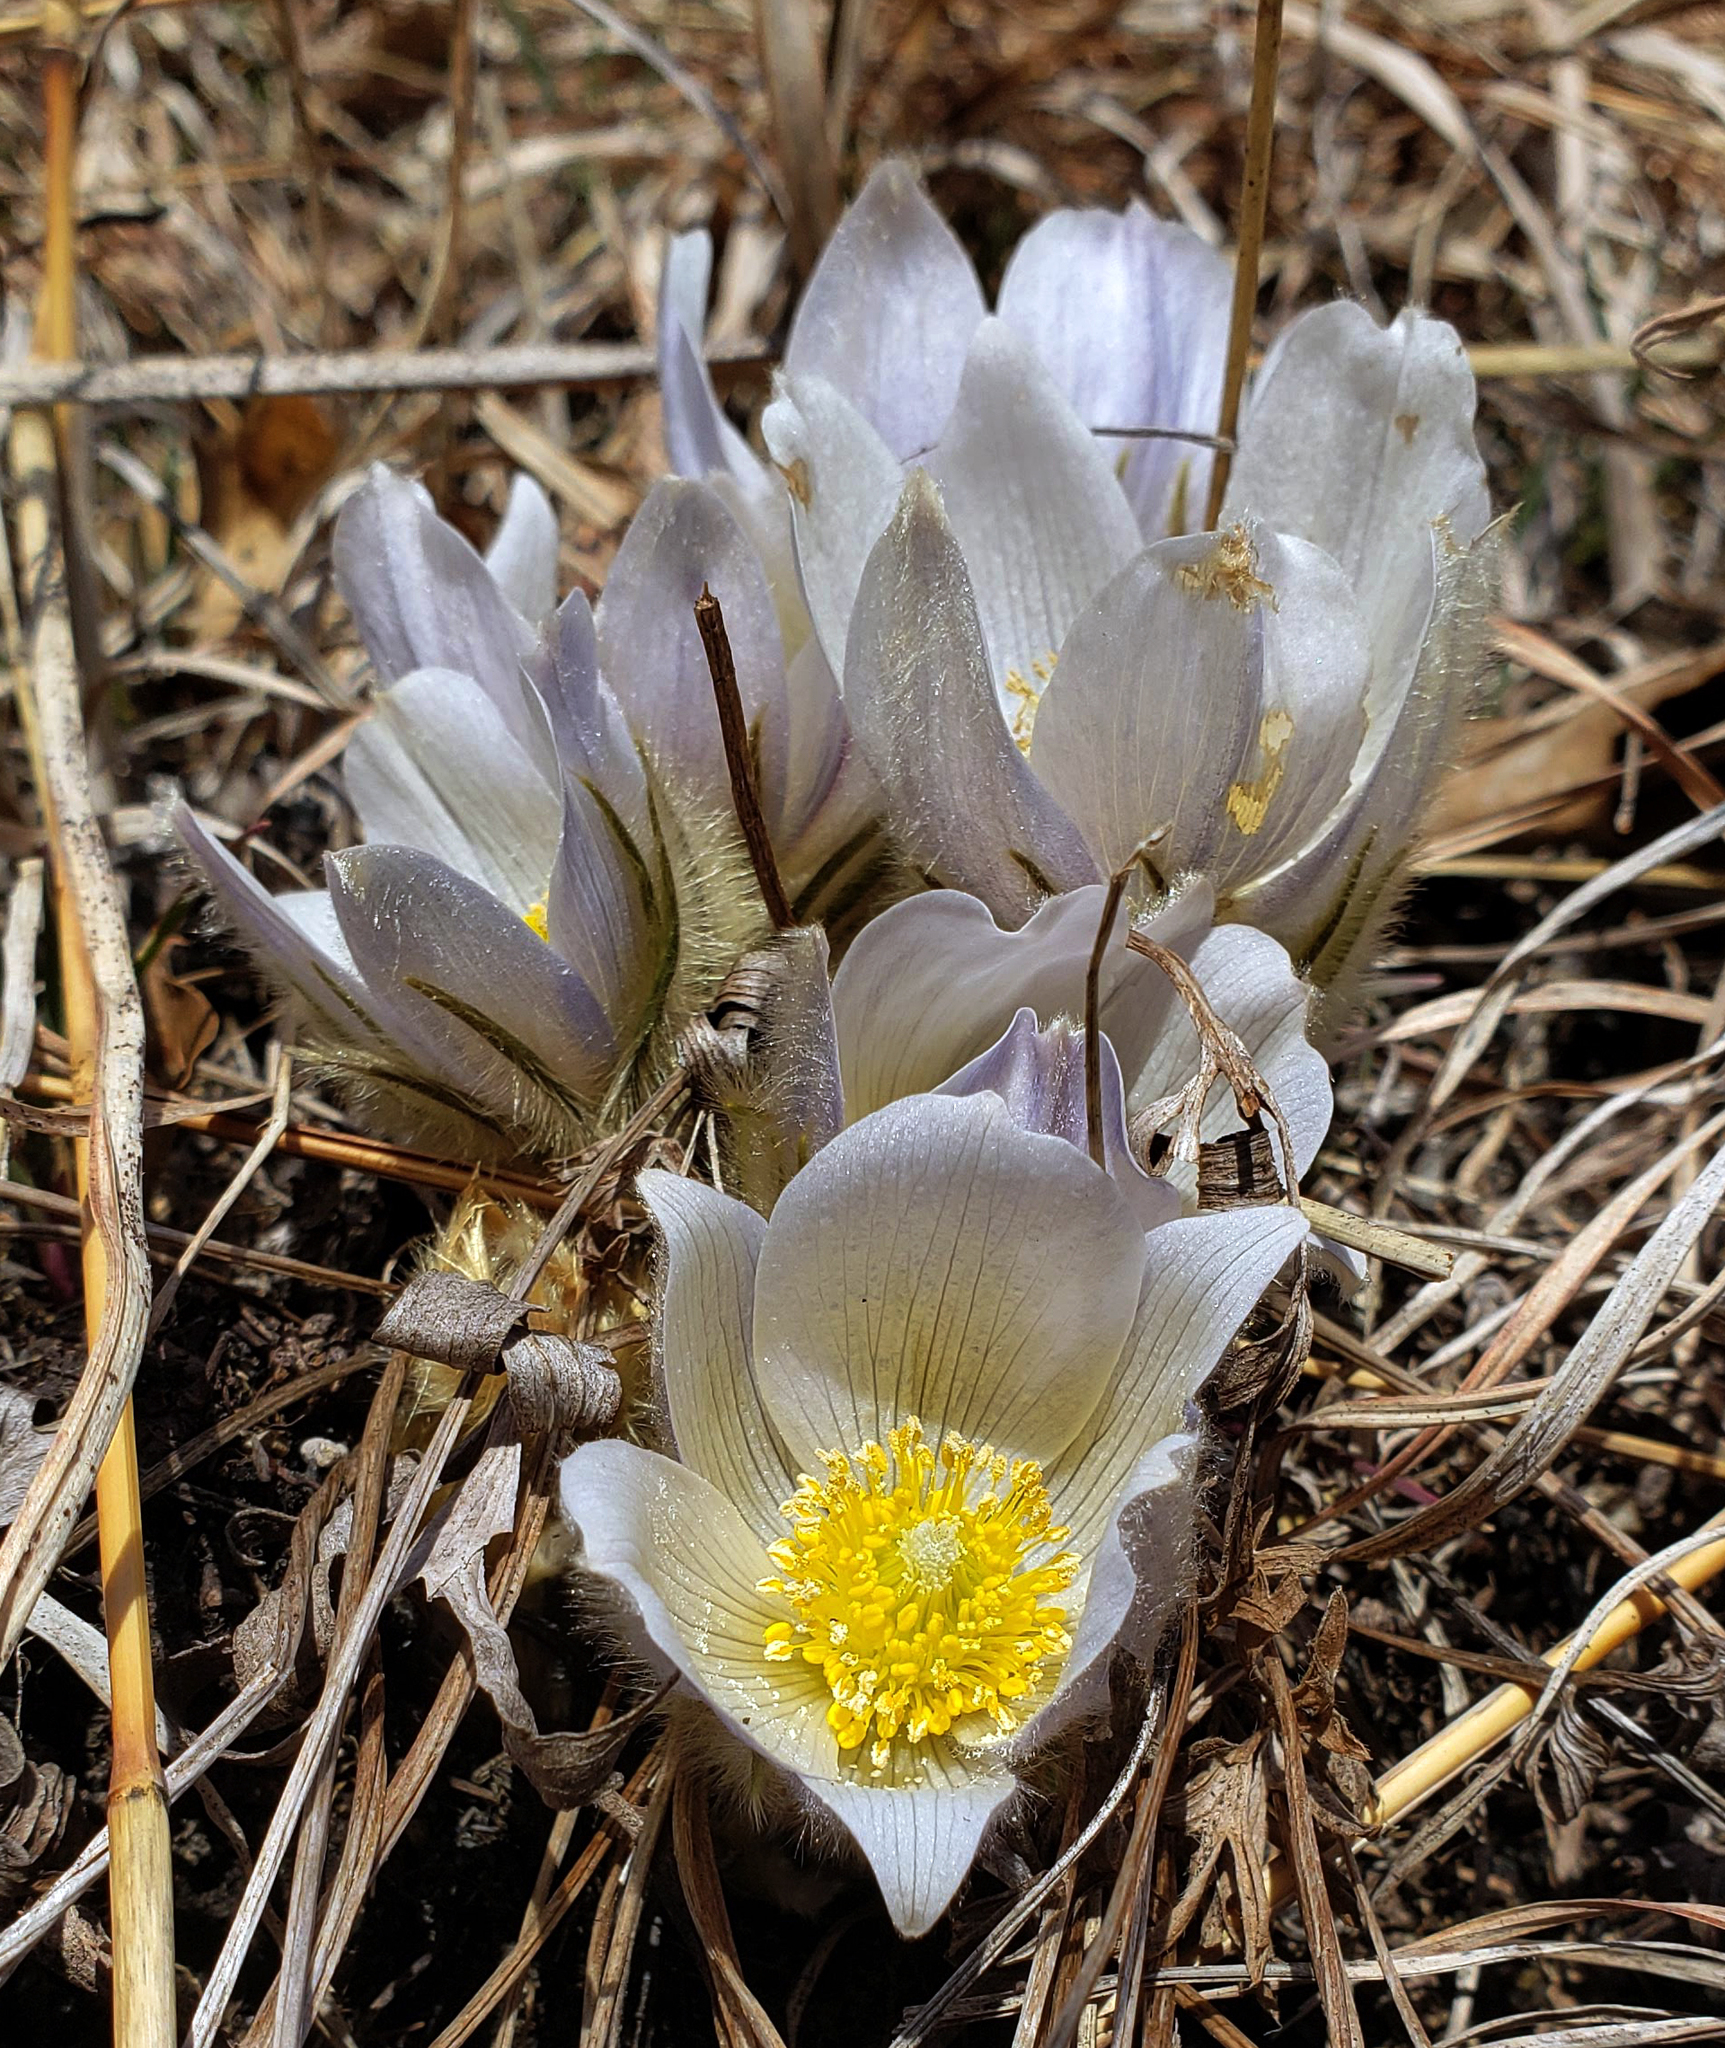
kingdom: Plantae
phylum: Tracheophyta
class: Magnoliopsida
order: Ranunculales
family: Ranunculaceae
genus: Pulsatilla
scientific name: Pulsatilla nuttalliana
